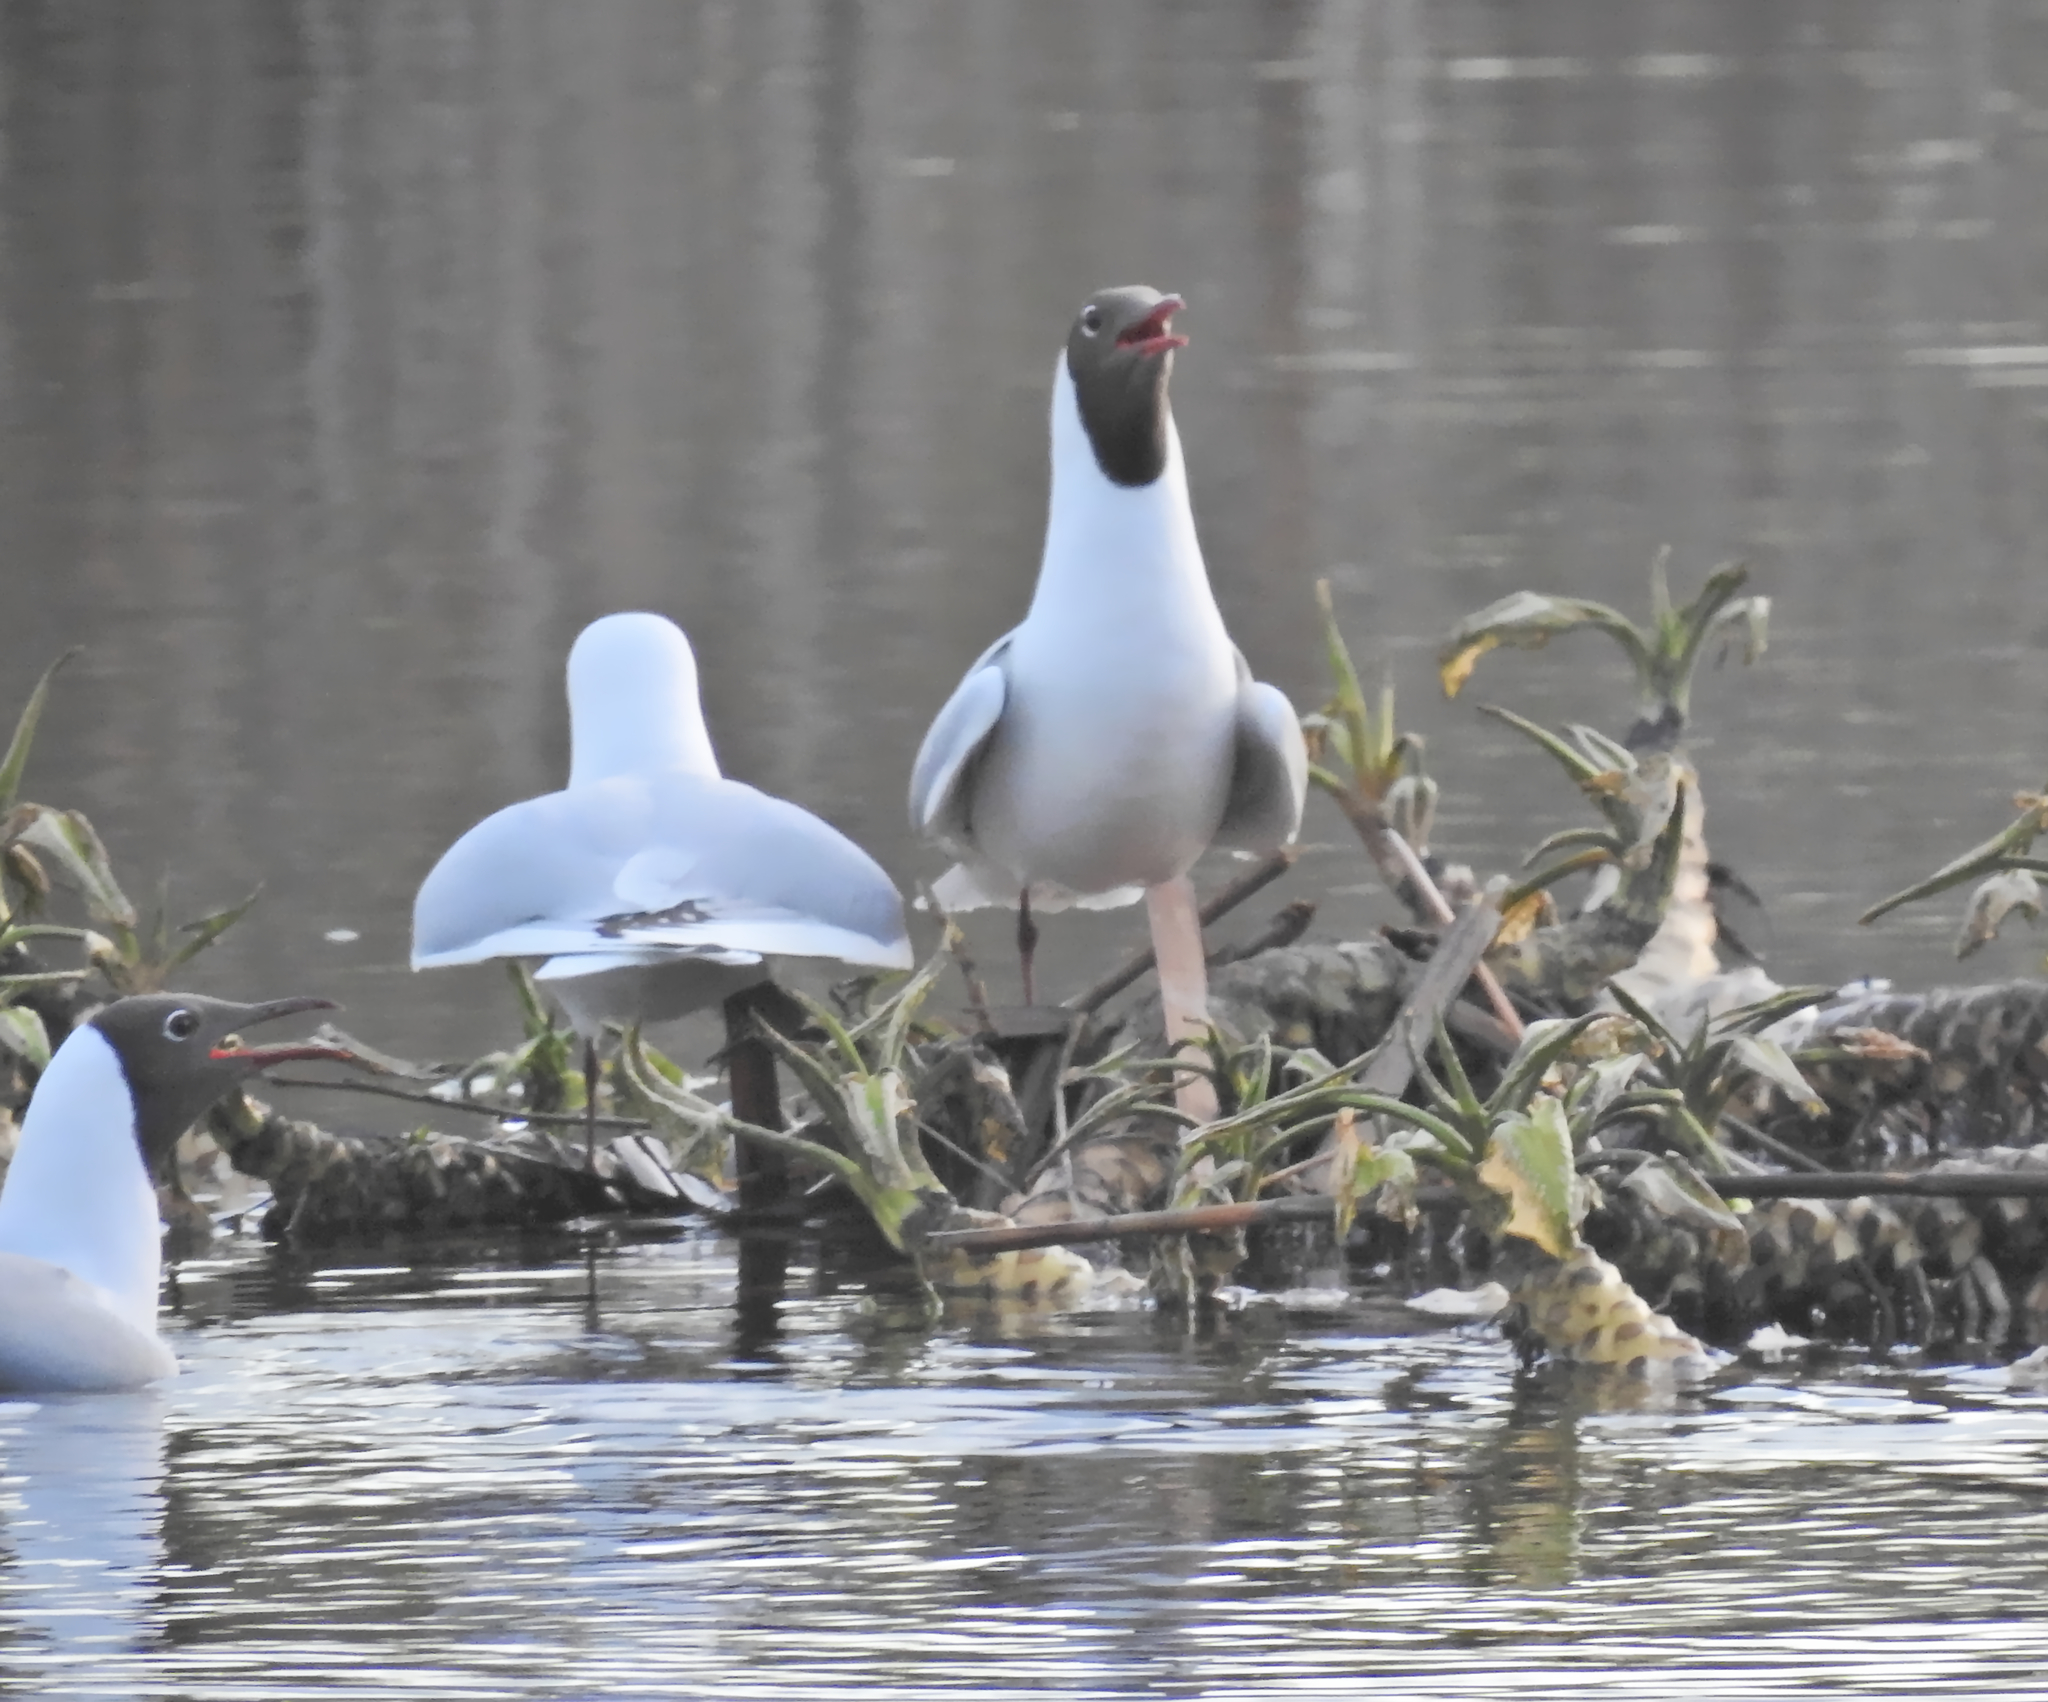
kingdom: Animalia
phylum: Chordata
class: Aves
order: Charadriiformes
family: Laridae
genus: Chroicocephalus
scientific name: Chroicocephalus ridibundus
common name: Black-headed gull
